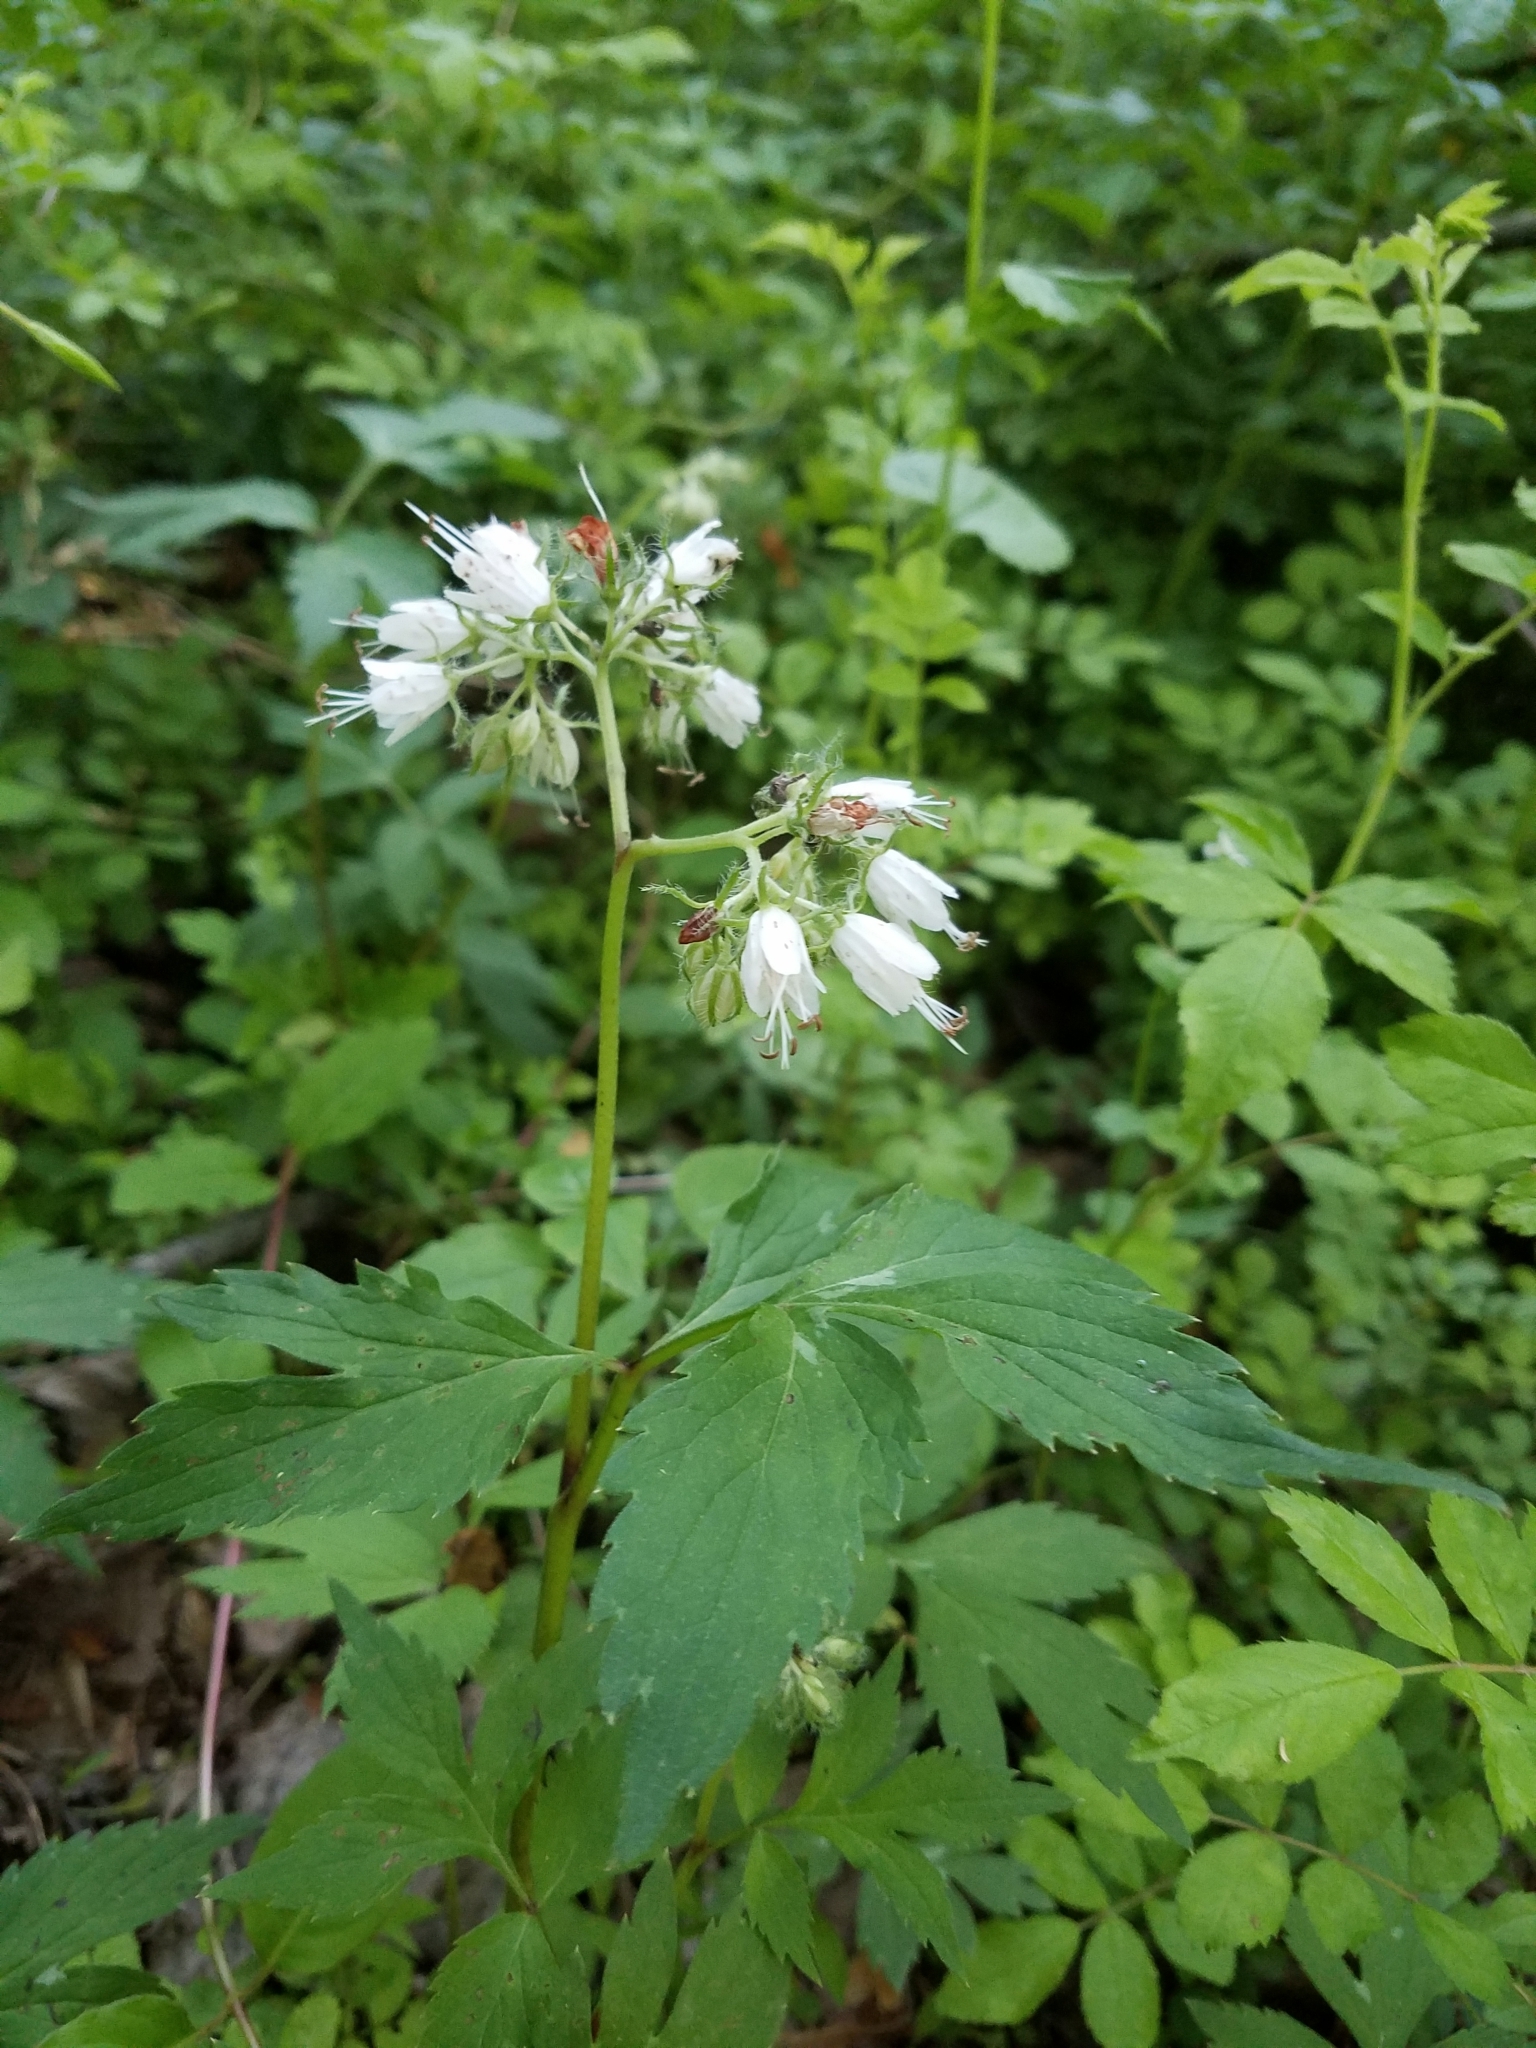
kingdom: Plantae
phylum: Tracheophyta
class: Magnoliopsida
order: Boraginales
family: Hydrophyllaceae
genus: Hydrophyllum
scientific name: Hydrophyllum virginianum
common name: Virginia waterleaf
